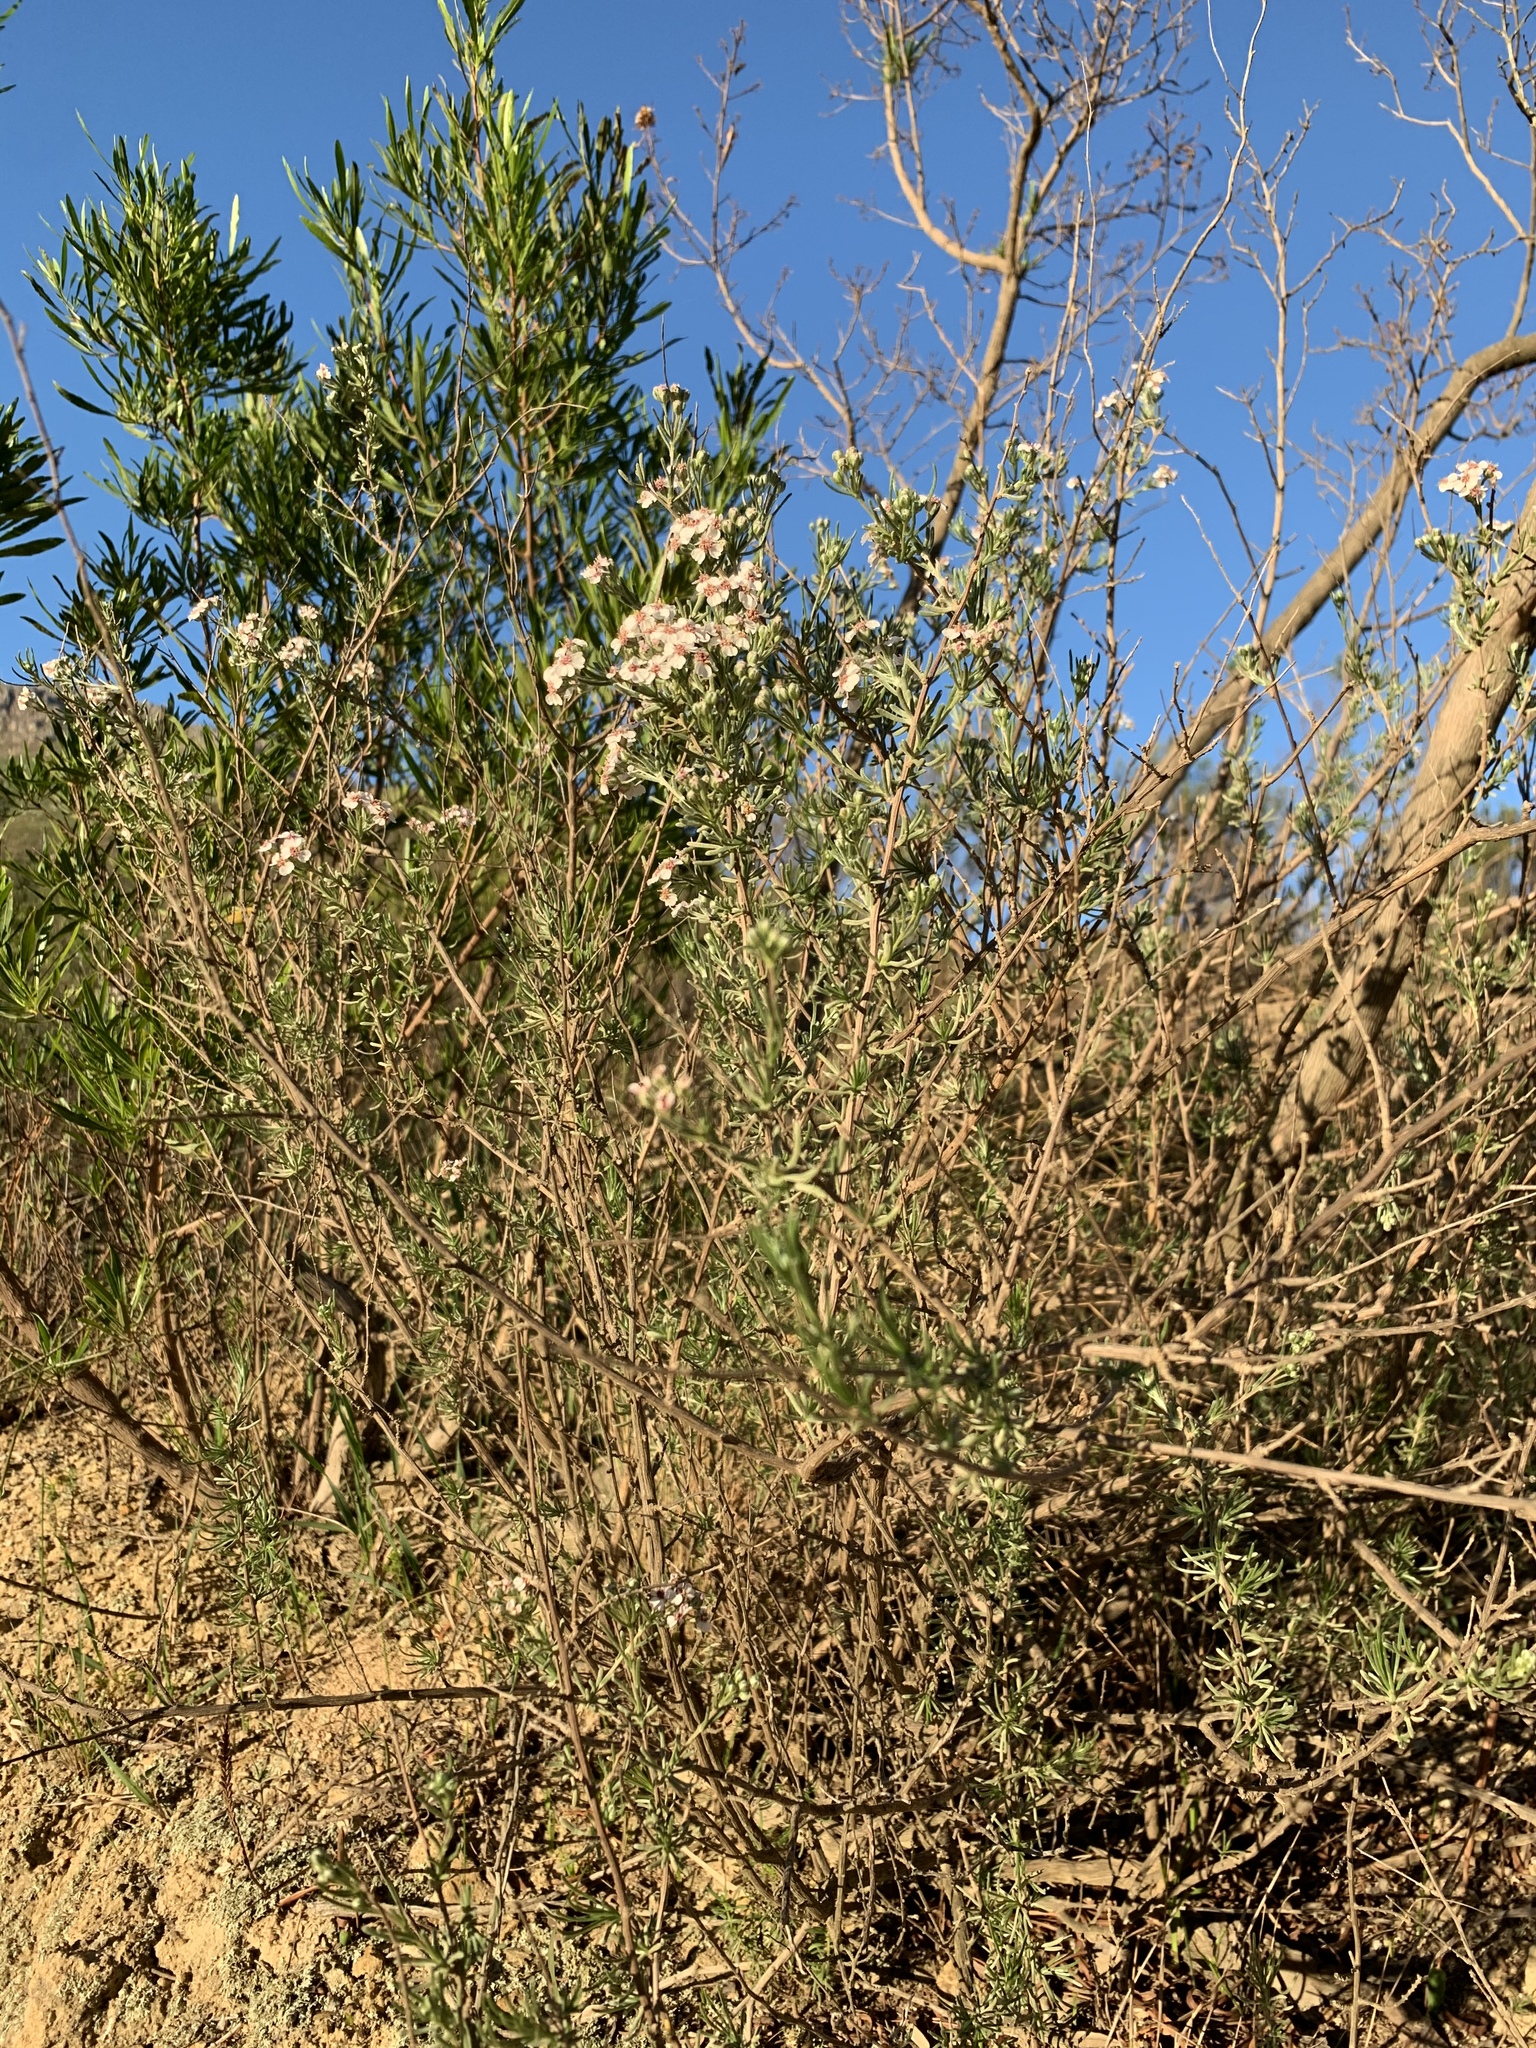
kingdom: Plantae
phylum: Tracheophyta
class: Magnoliopsida
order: Asterales
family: Asteraceae
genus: Eriocephalus
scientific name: Eriocephalus africanus
